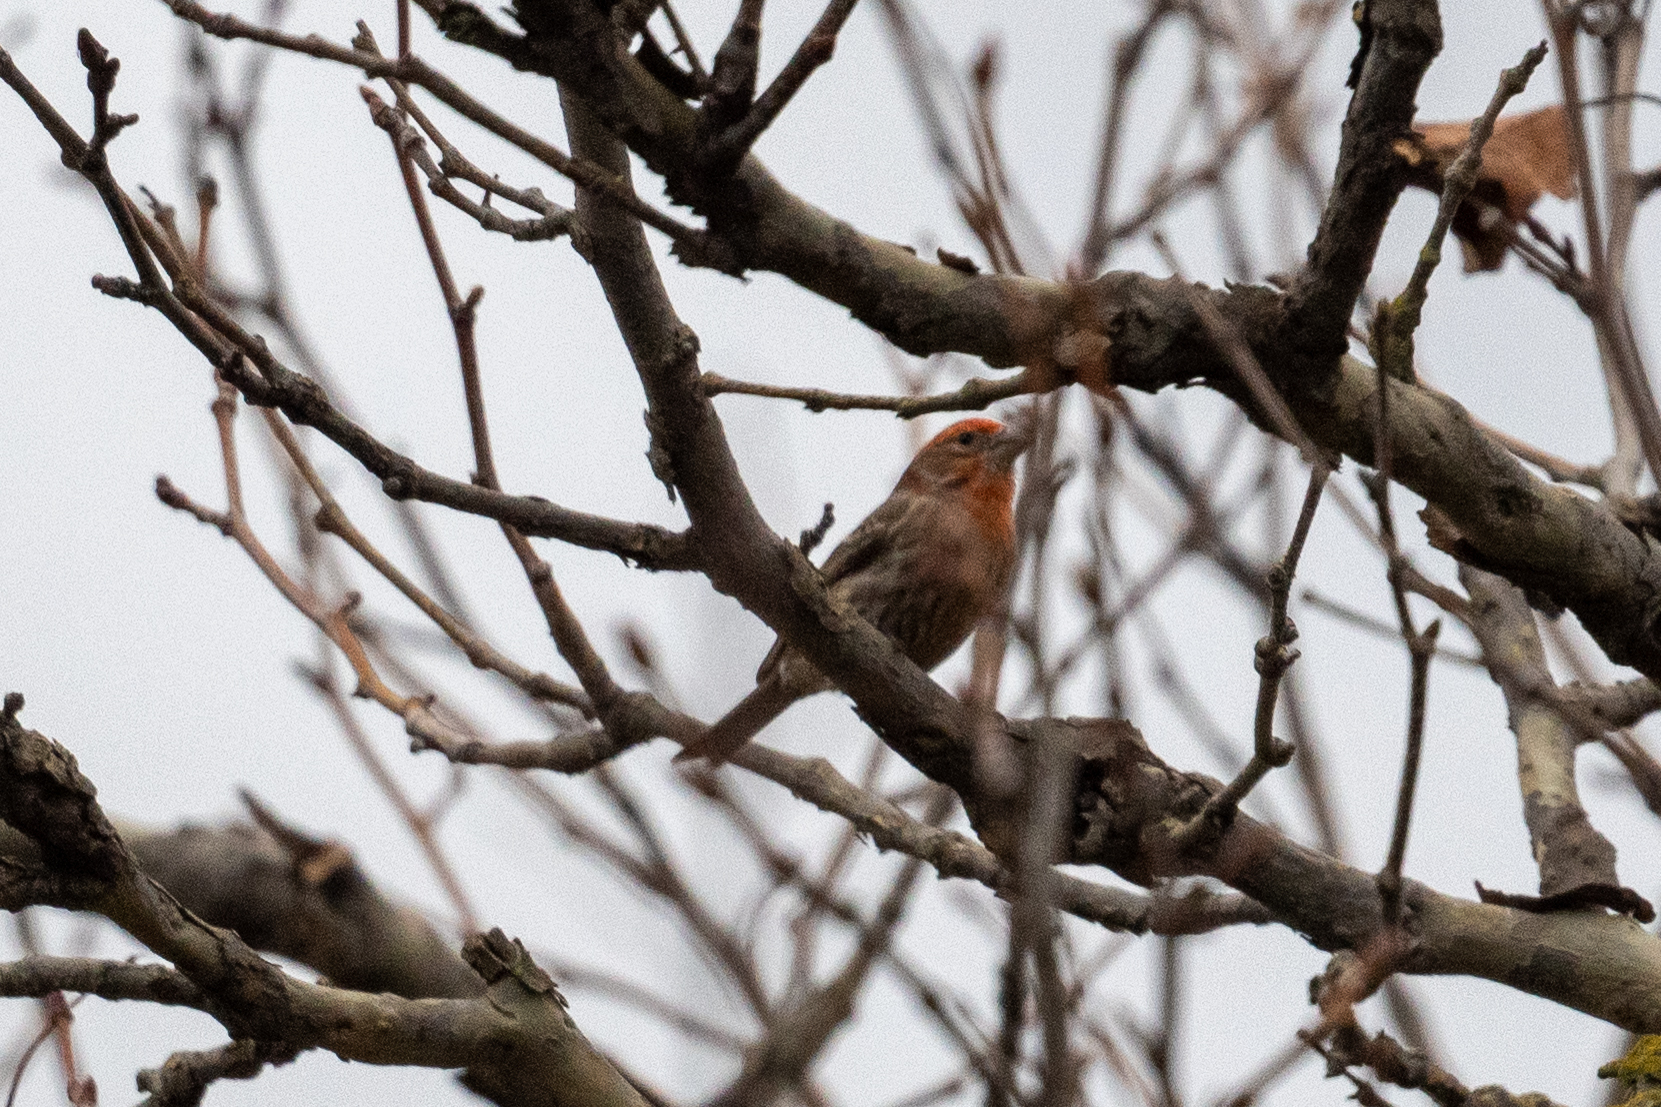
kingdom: Animalia
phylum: Chordata
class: Aves
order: Passeriformes
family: Fringillidae
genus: Haemorhous
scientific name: Haemorhous mexicanus
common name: House finch
